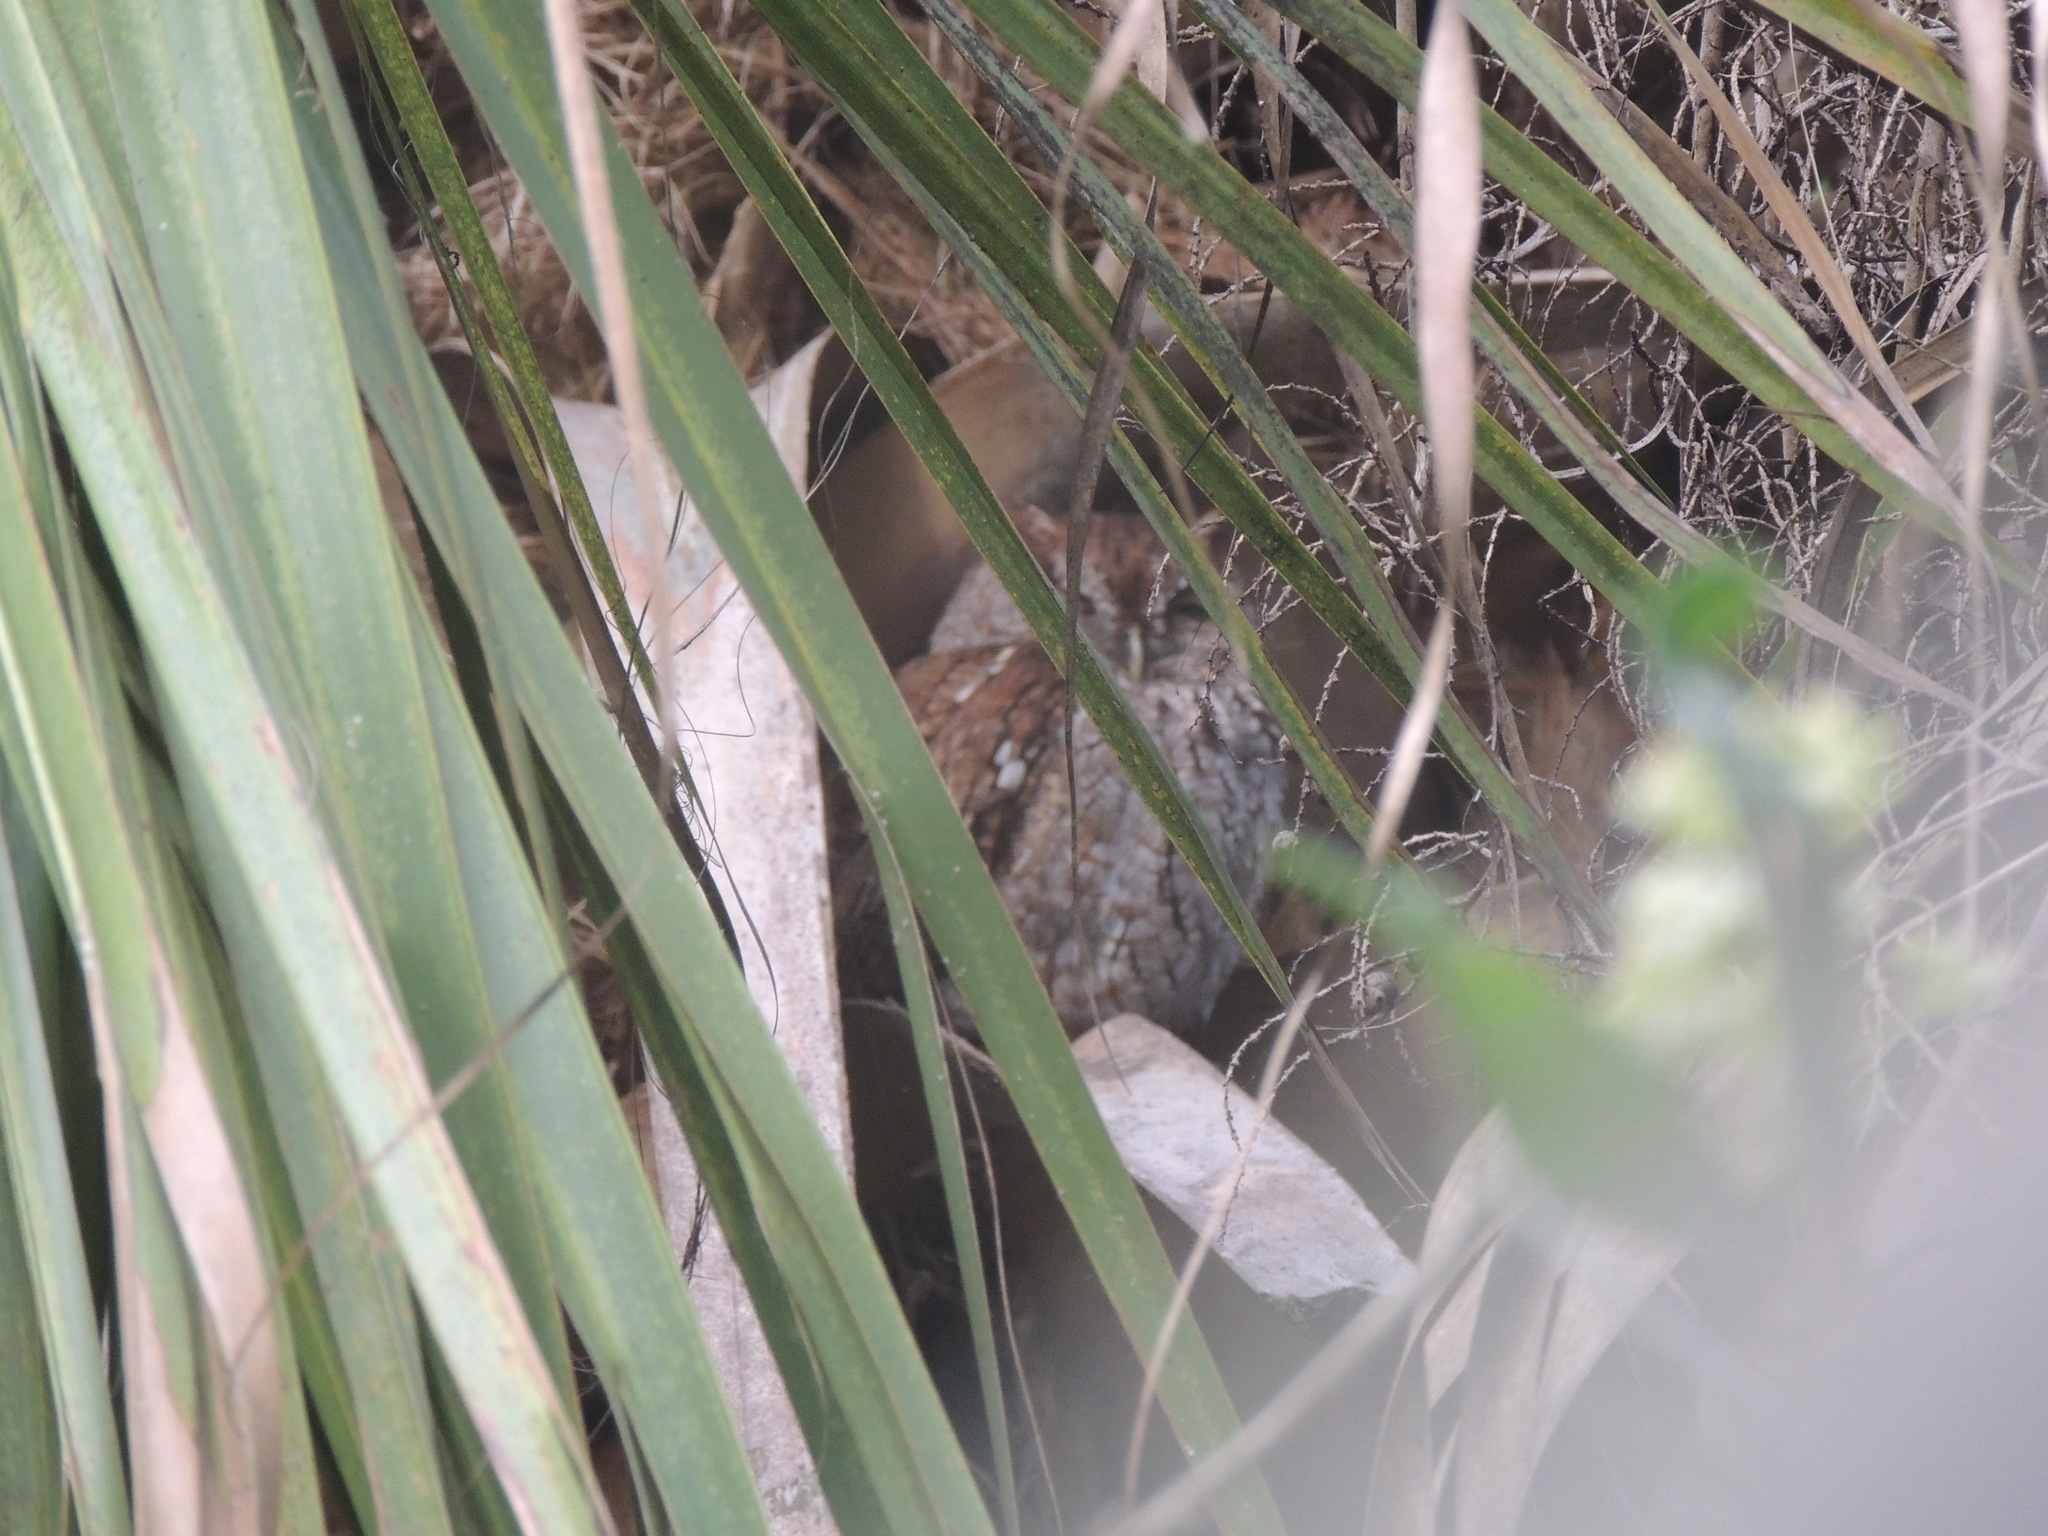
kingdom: Animalia
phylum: Chordata
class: Aves
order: Strigiformes
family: Strigidae
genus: Megascops
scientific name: Megascops asio
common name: Eastern screech-owl
